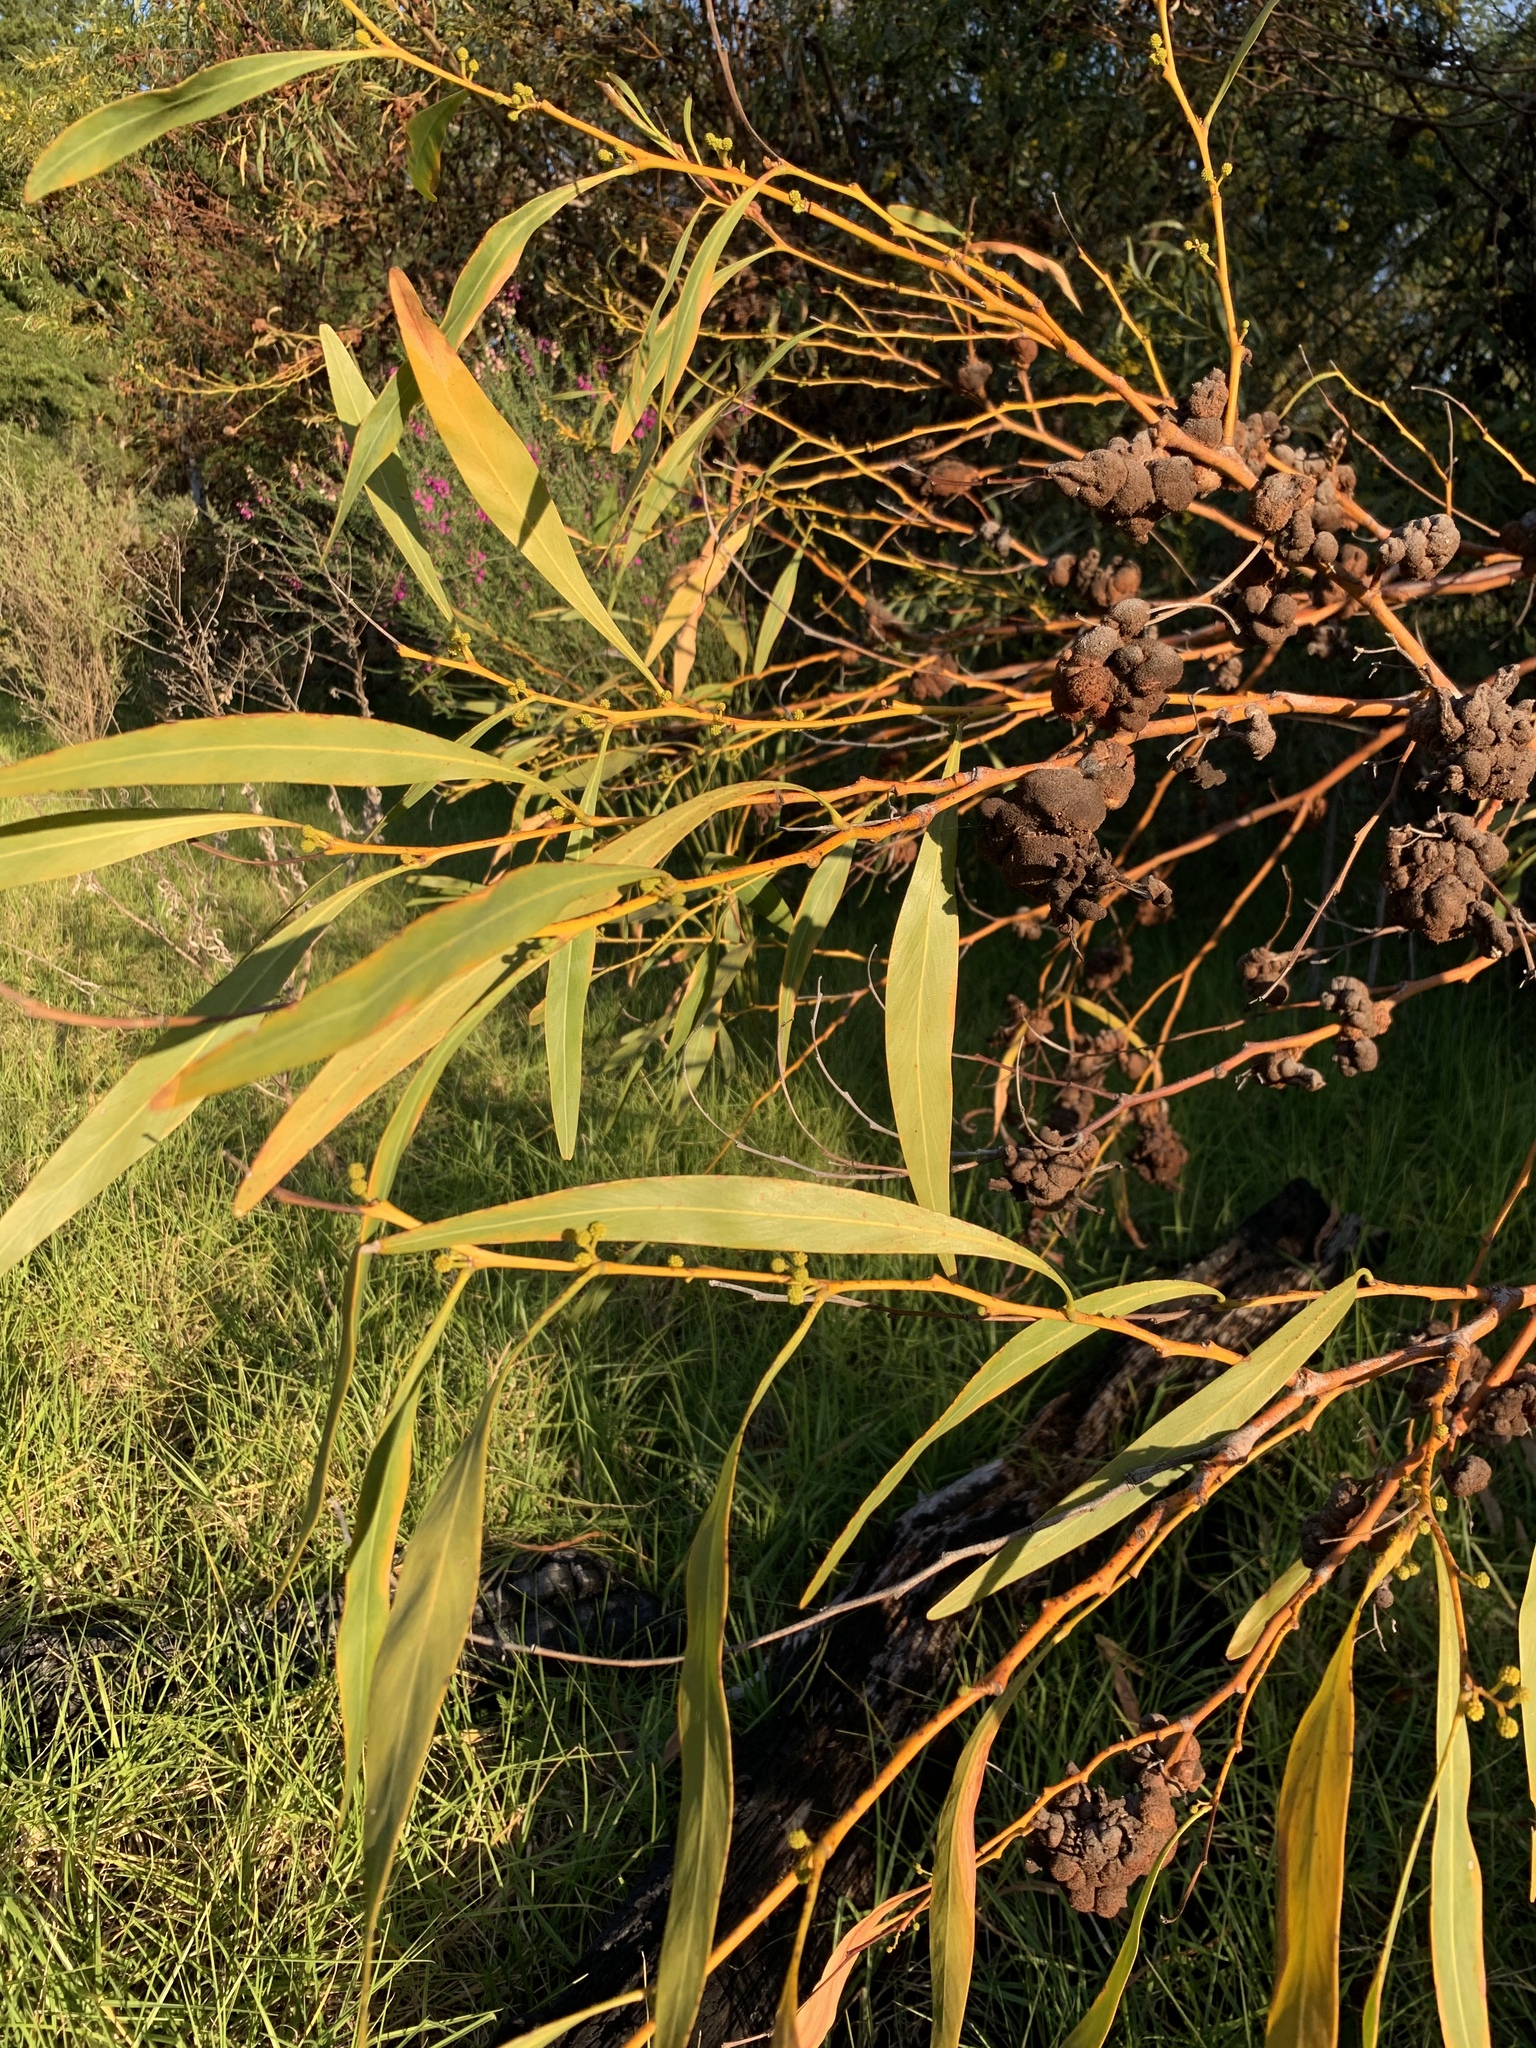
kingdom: Plantae
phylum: Tracheophyta
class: Magnoliopsida
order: Fabales
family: Fabaceae
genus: Acacia
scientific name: Acacia saligna
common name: Orange wattle
